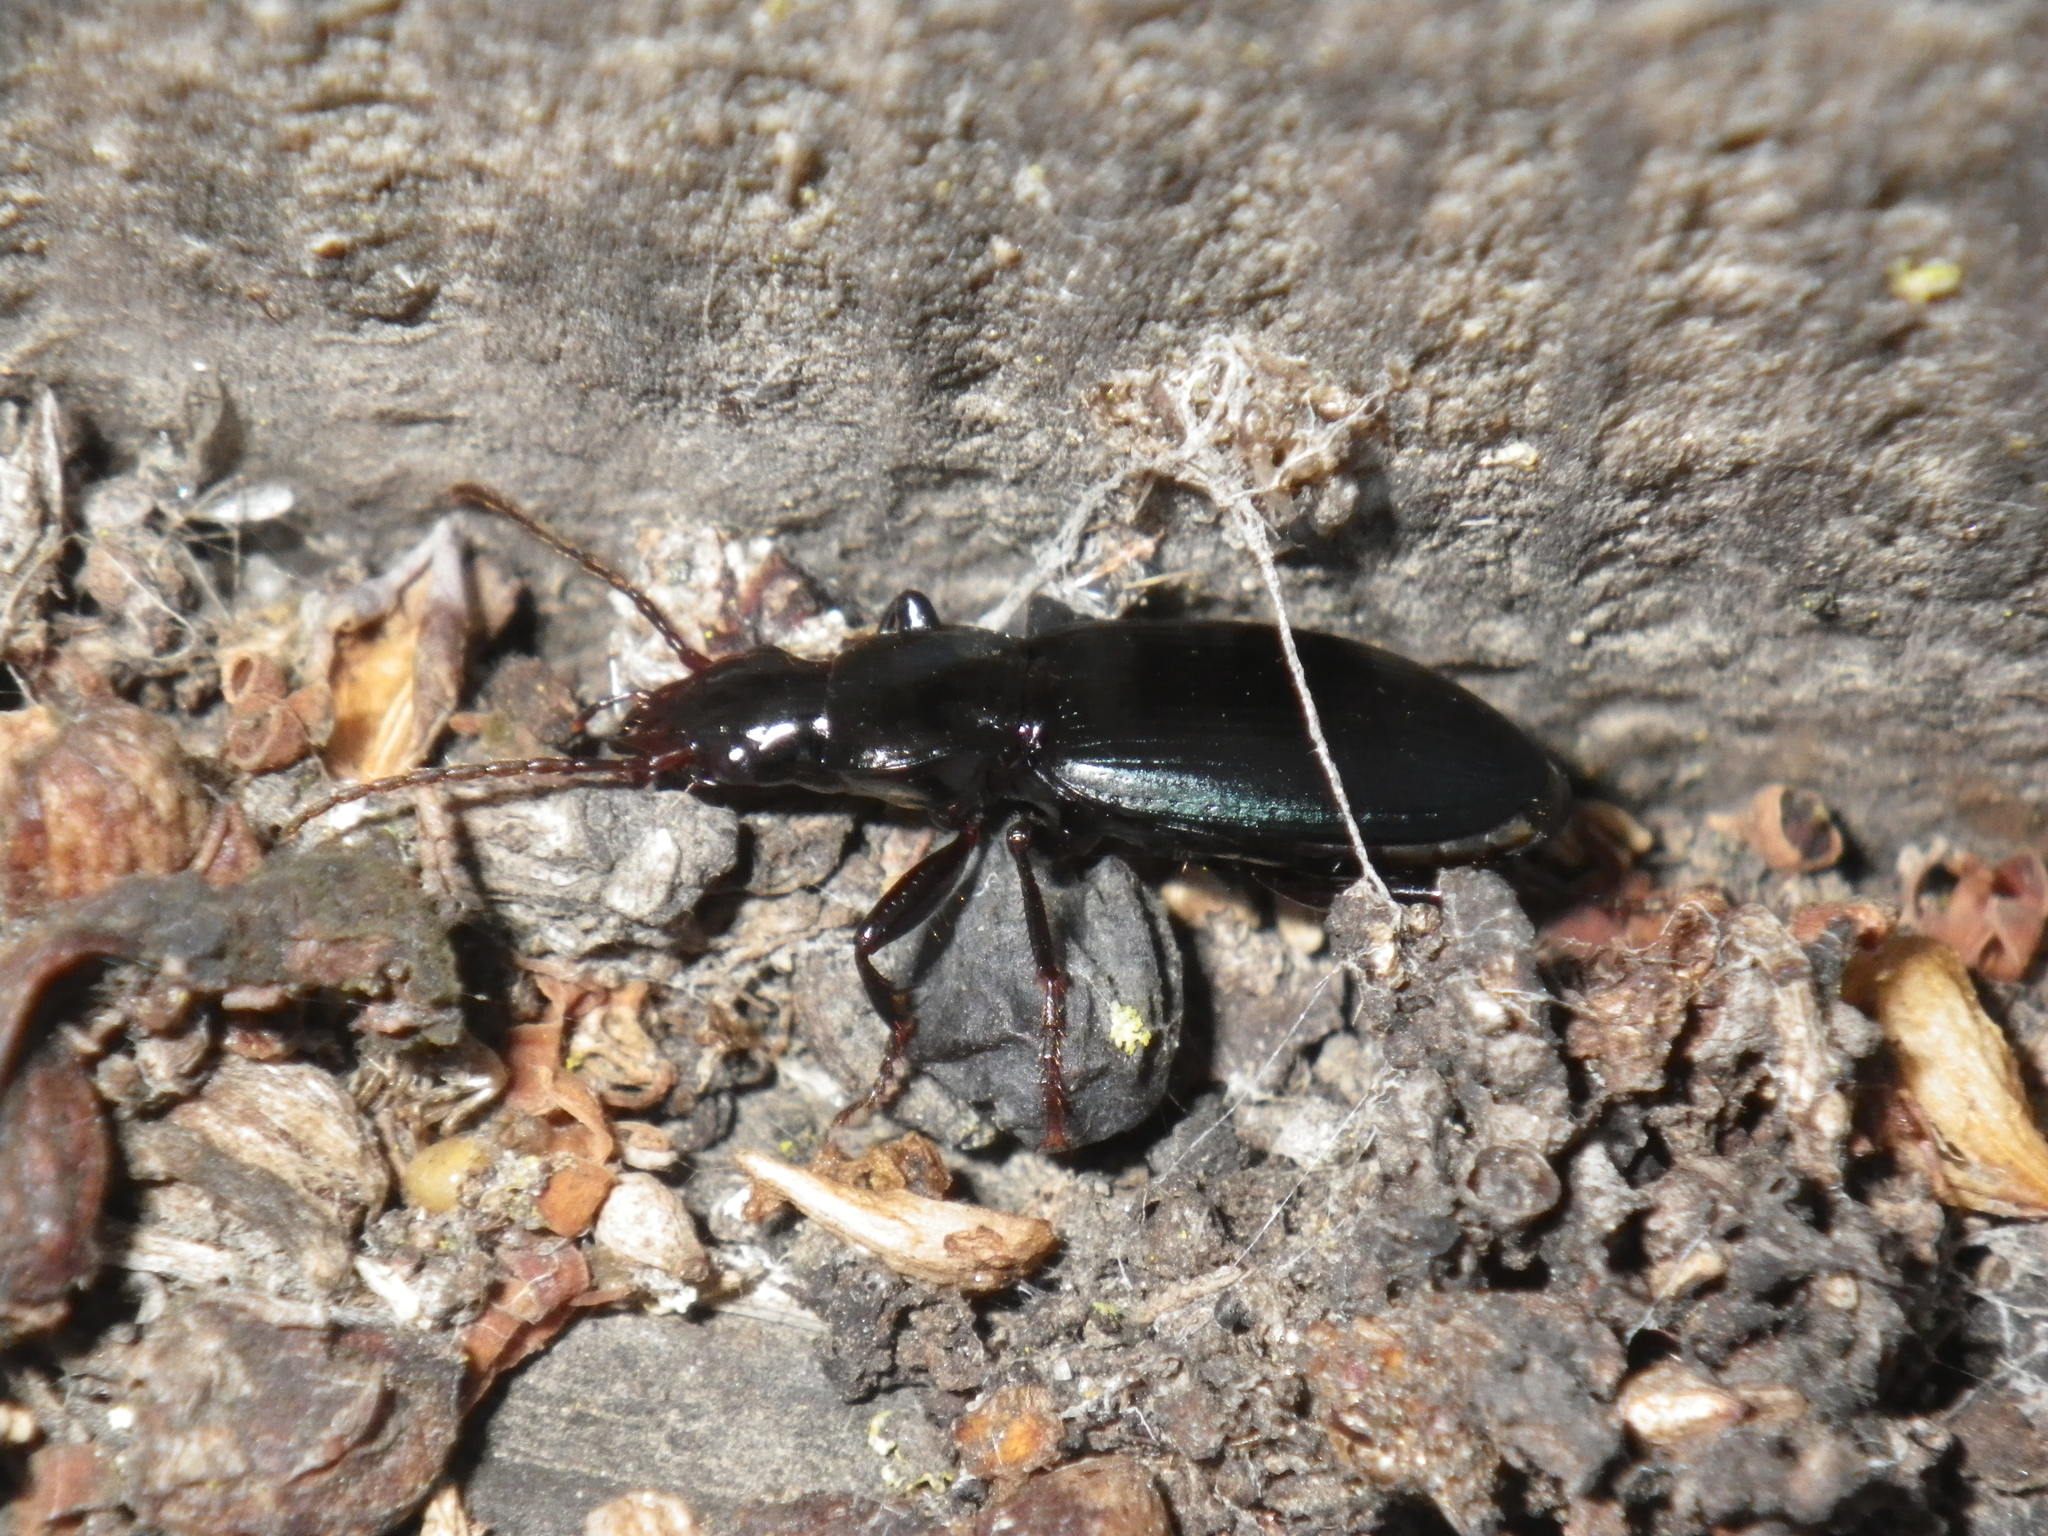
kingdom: Animalia
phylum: Arthropoda
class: Insecta
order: Coleoptera
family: Carabidae
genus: Laemostenus
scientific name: Laemostenus complanatus
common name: Cosmopolitan ground beetle
